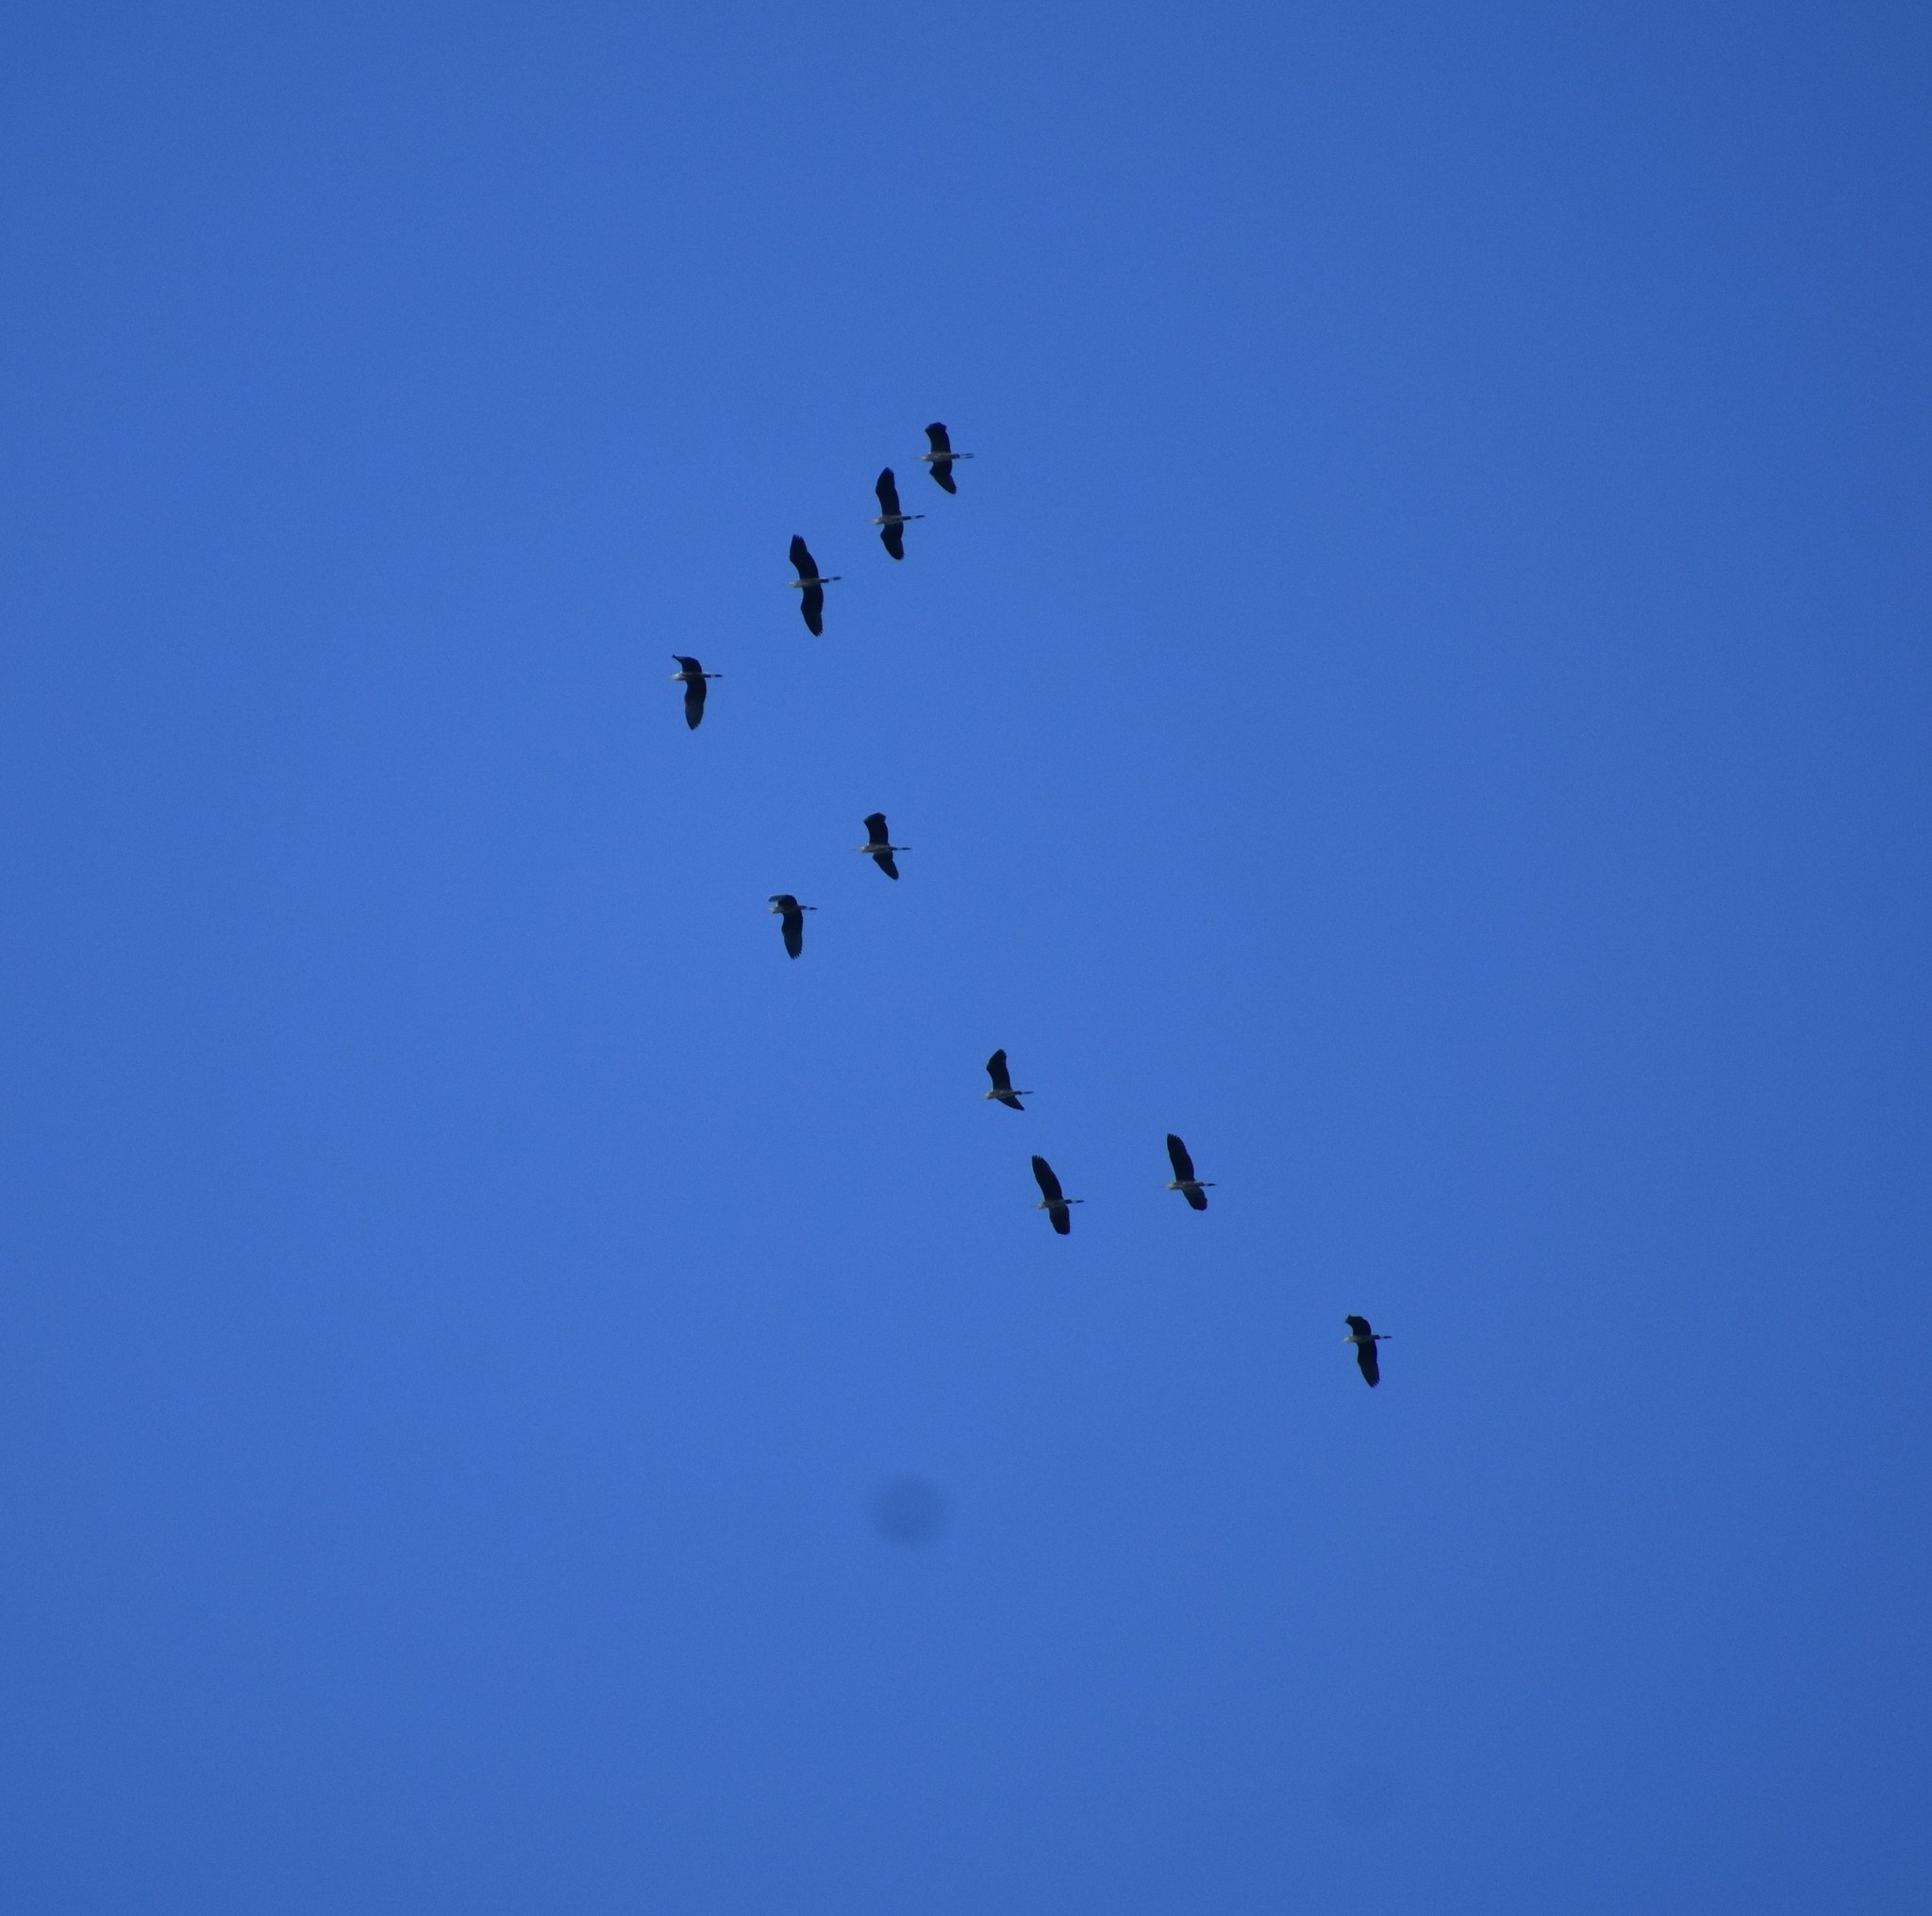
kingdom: Animalia
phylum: Chordata
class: Aves
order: Pelecaniformes
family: Ardeidae
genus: Ardea
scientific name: Ardea melanocephala
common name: Black-headed heron
